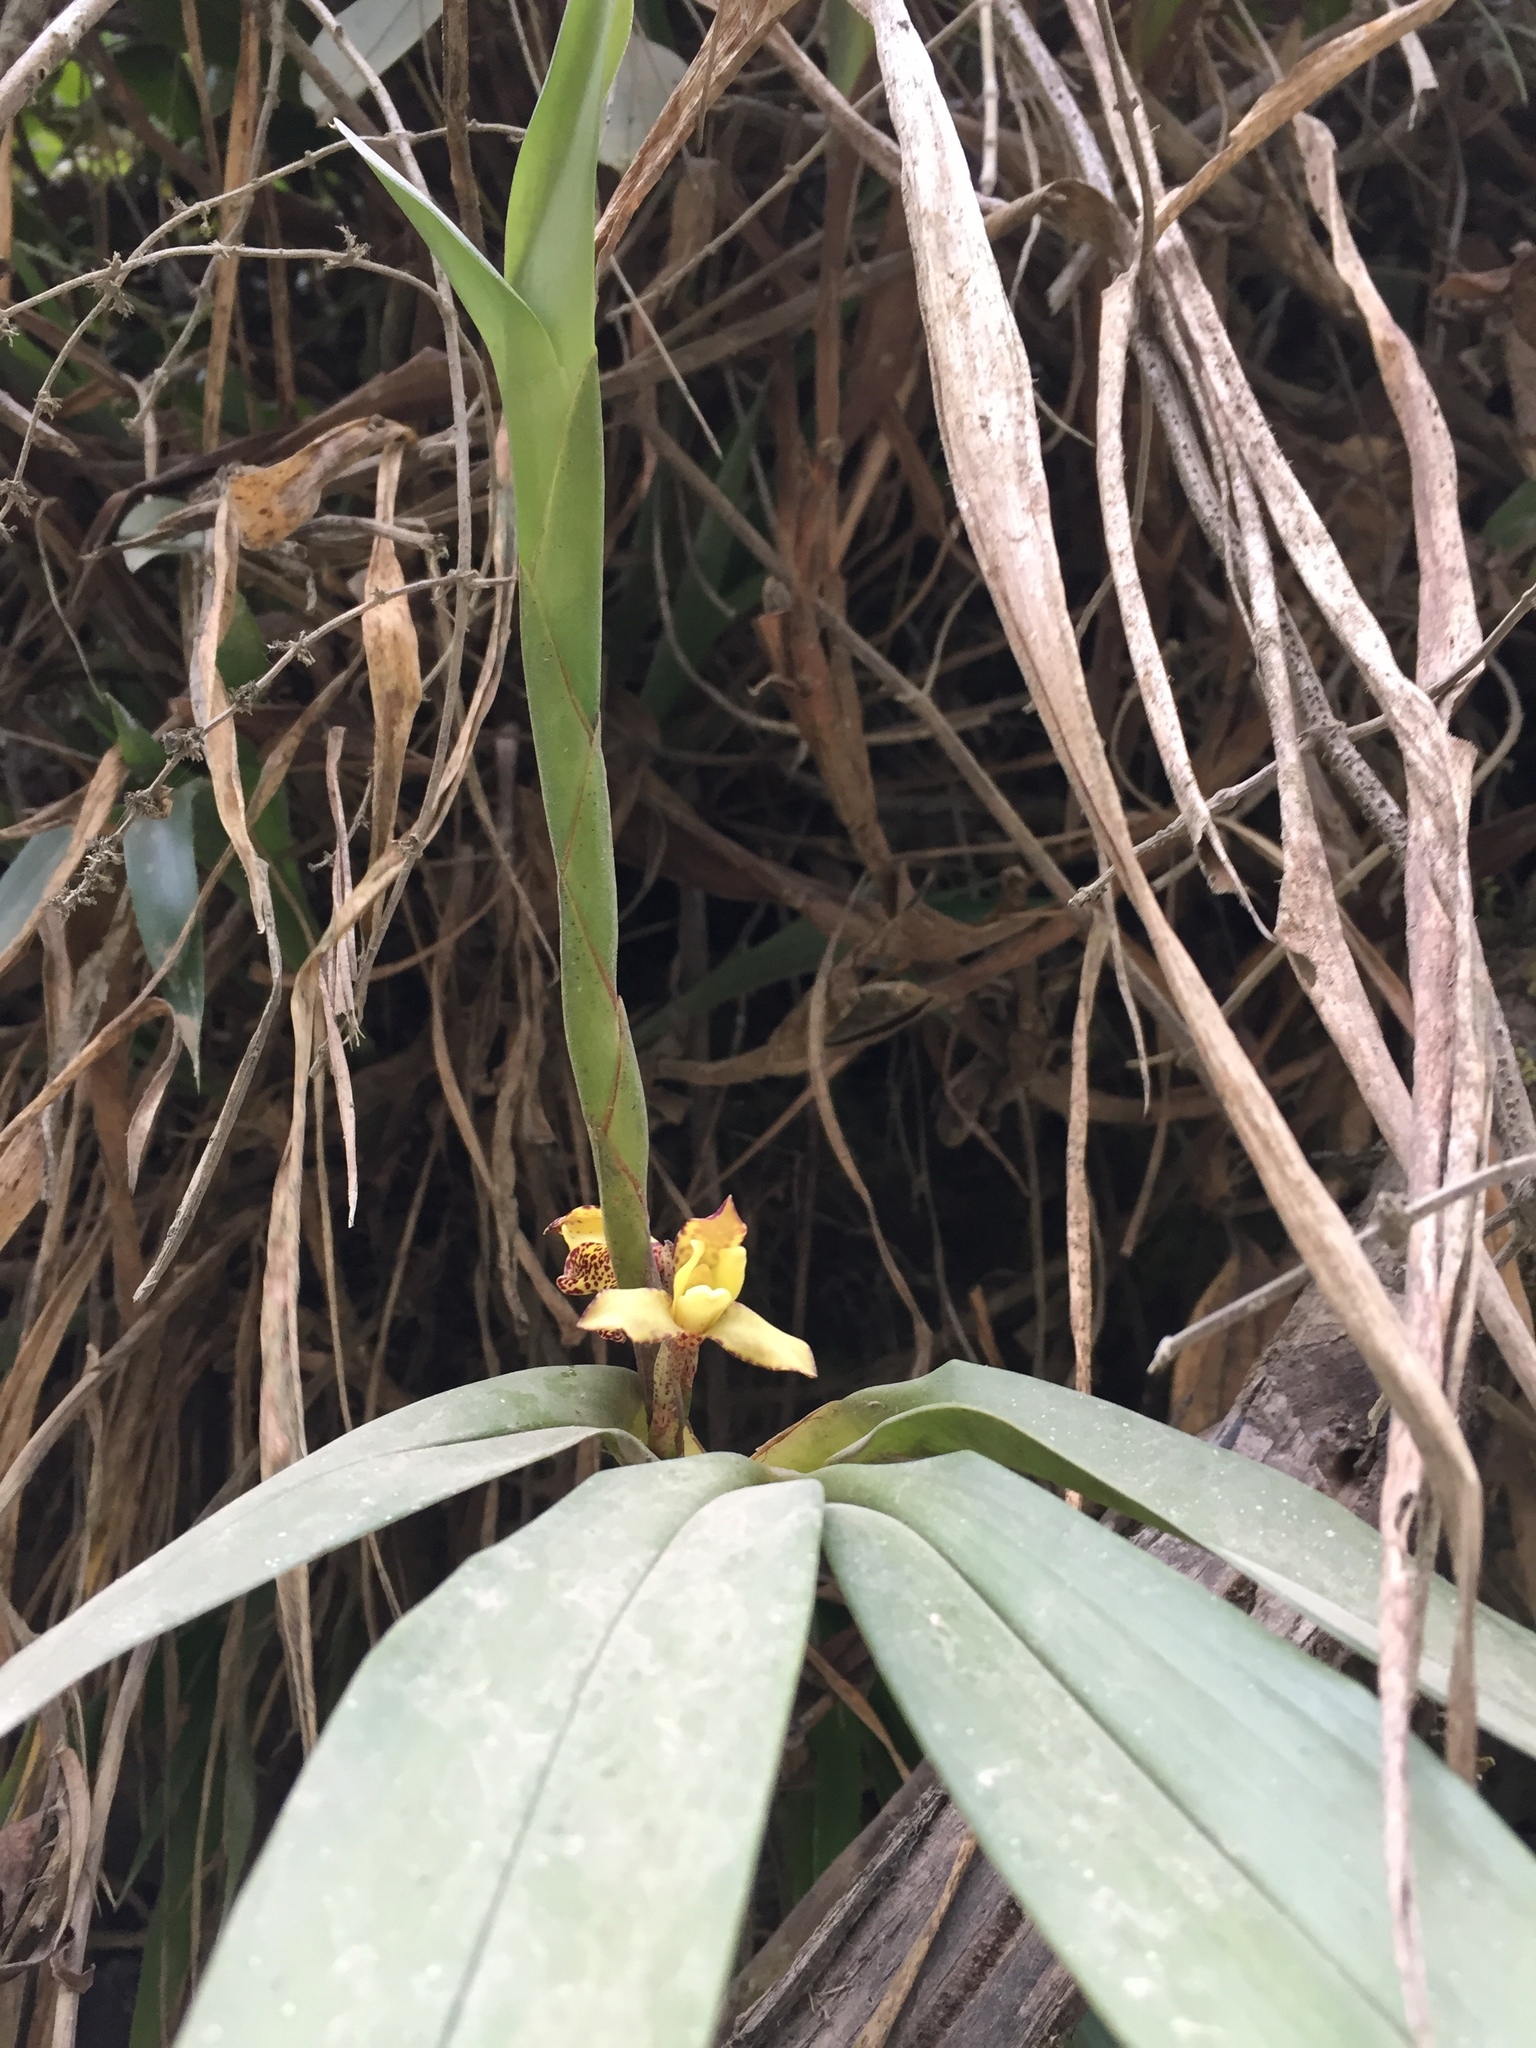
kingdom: Plantae
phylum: Tracheophyta
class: Liliopsida
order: Asparagales
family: Orchidaceae
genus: Maxillaria
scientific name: Maxillaria pardalina
